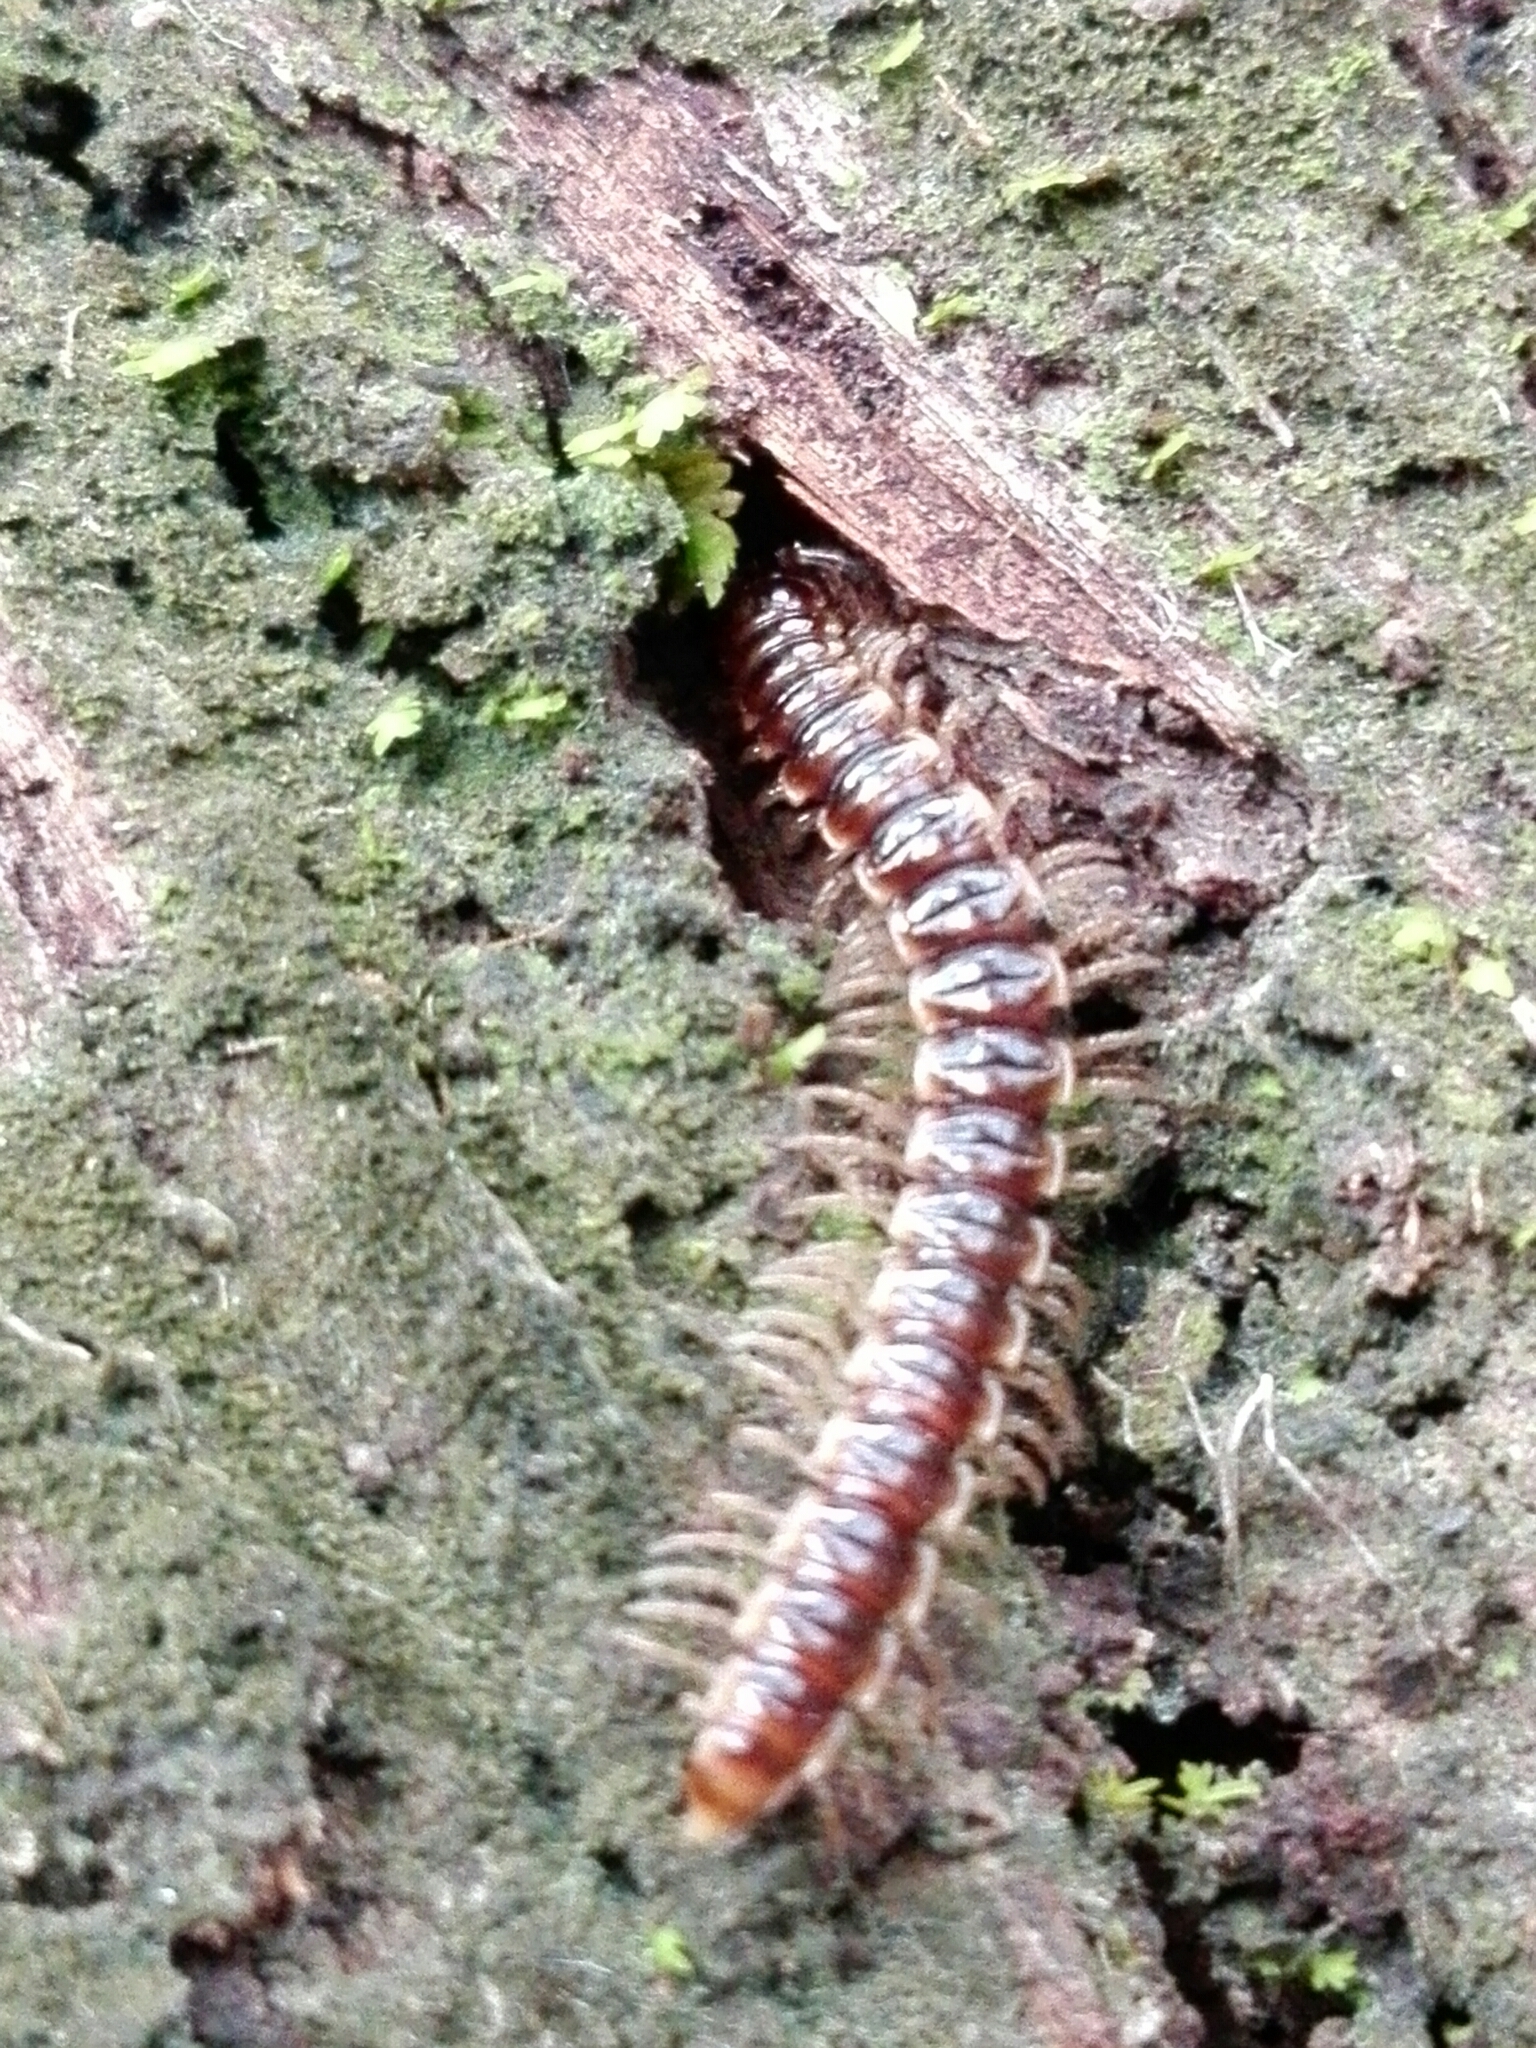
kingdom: Animalia
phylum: Arthropoda
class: Diplopoda
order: Polydesmida
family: Paradoxosomatidae
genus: Oxidus
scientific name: Oxidus gracilis
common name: Greenhouse millipede
